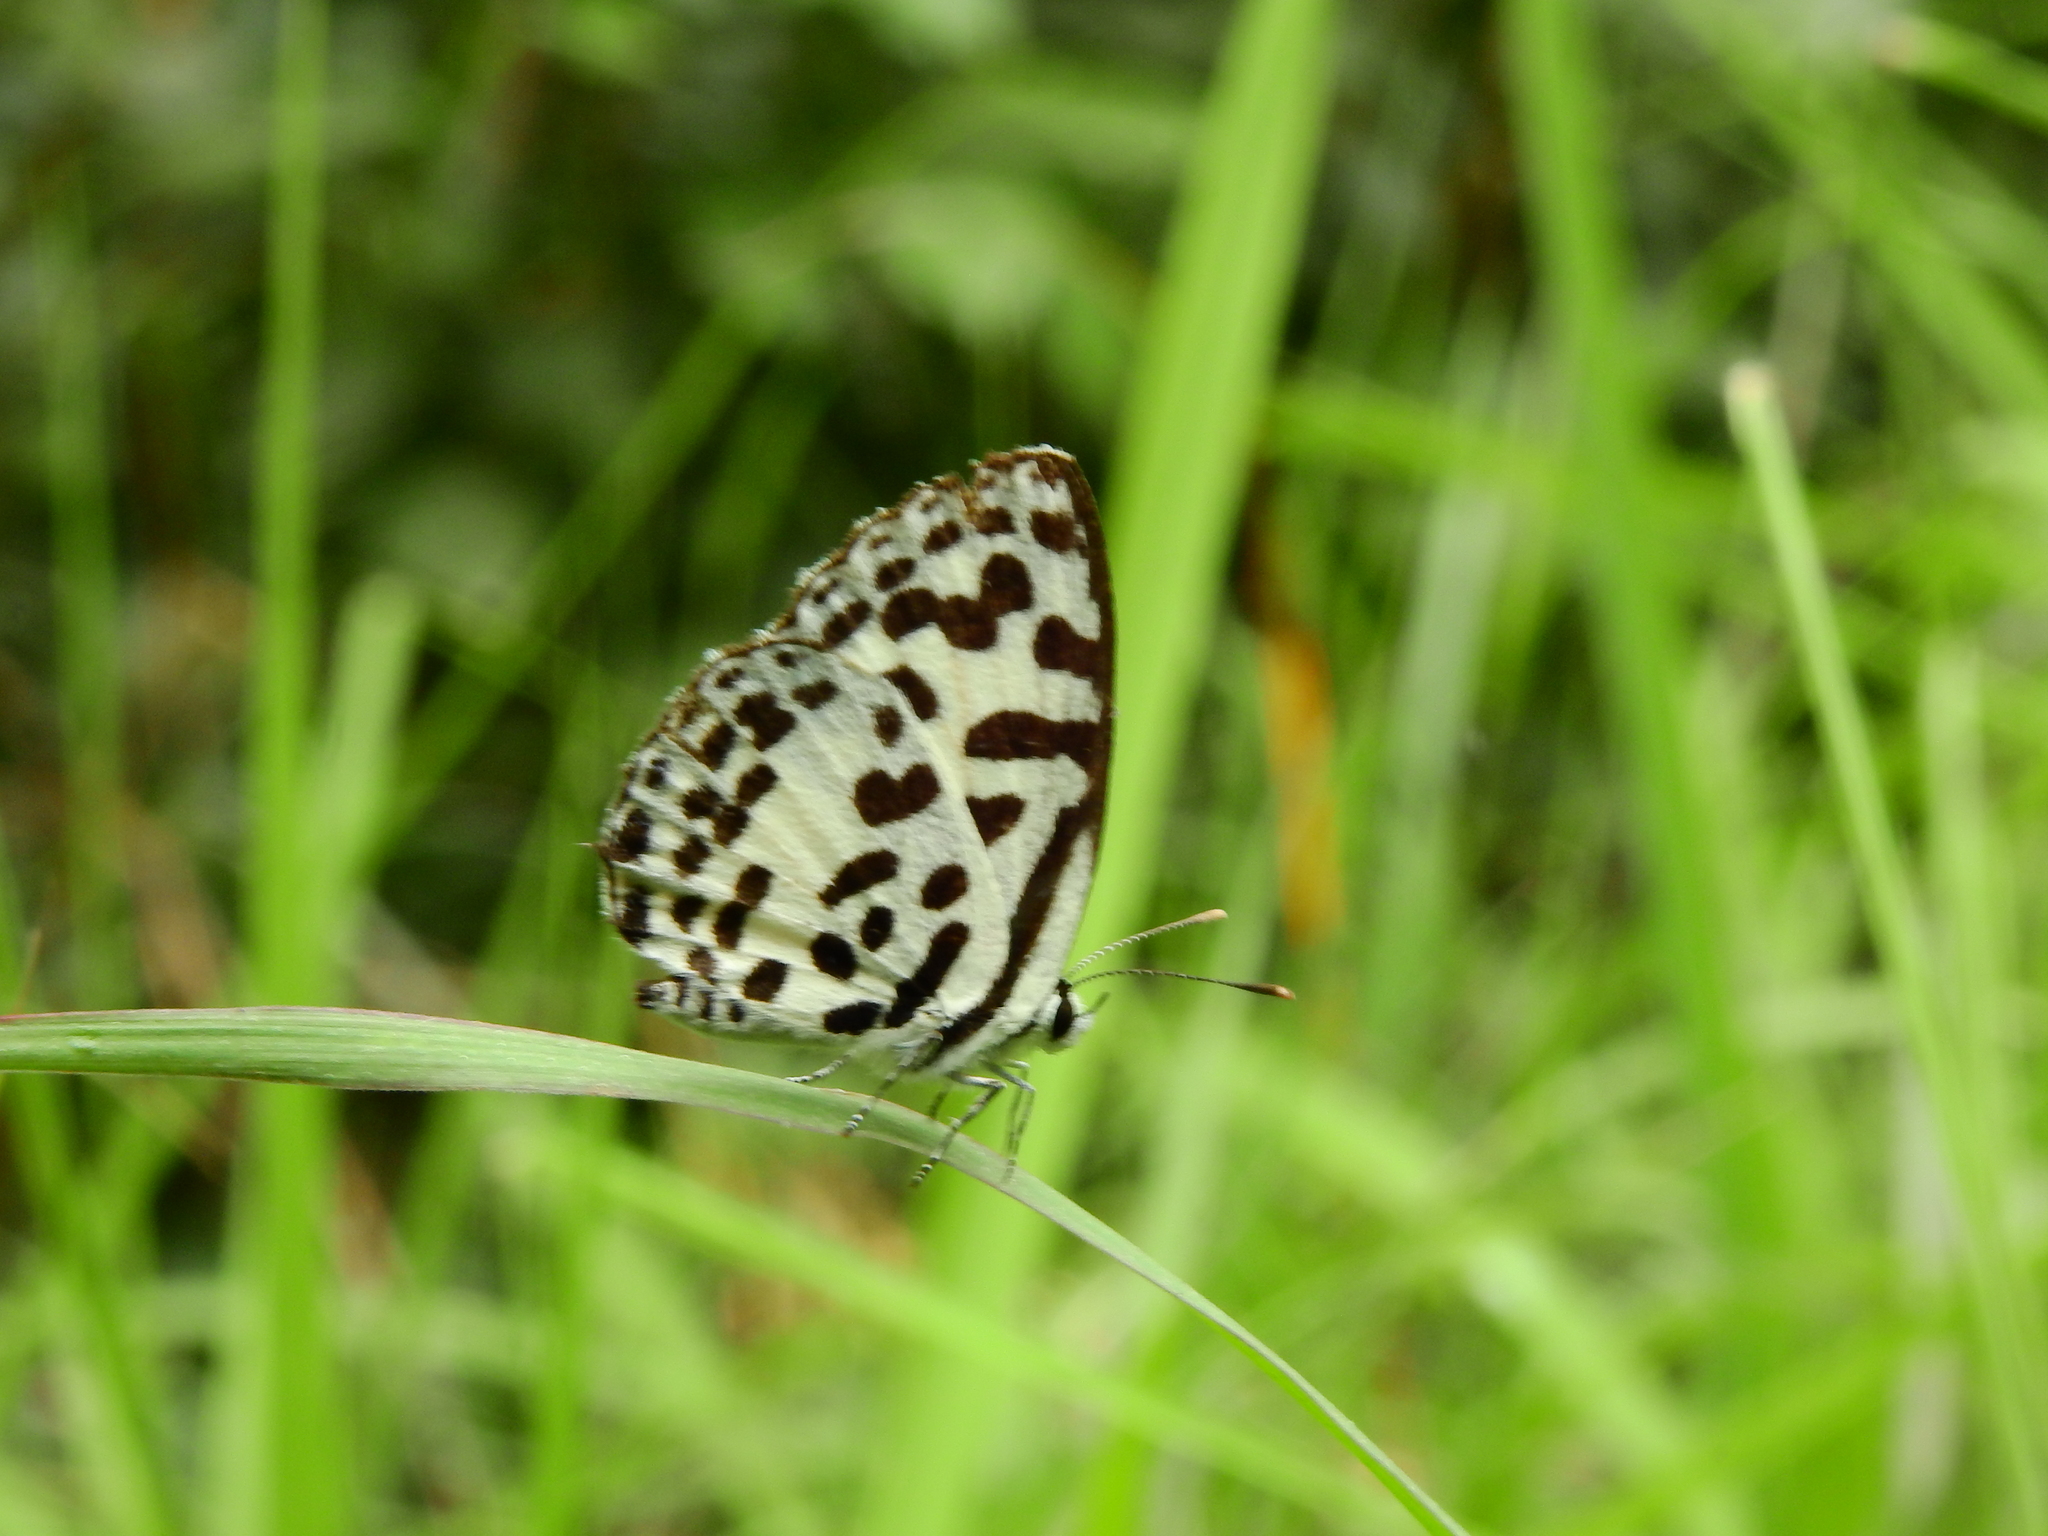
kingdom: Animalia
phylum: Arthropoda
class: Insecta
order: Lepidoptera
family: Lycaenidae
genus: Castalius
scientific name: Castalius rosimon
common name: Common pierrot
